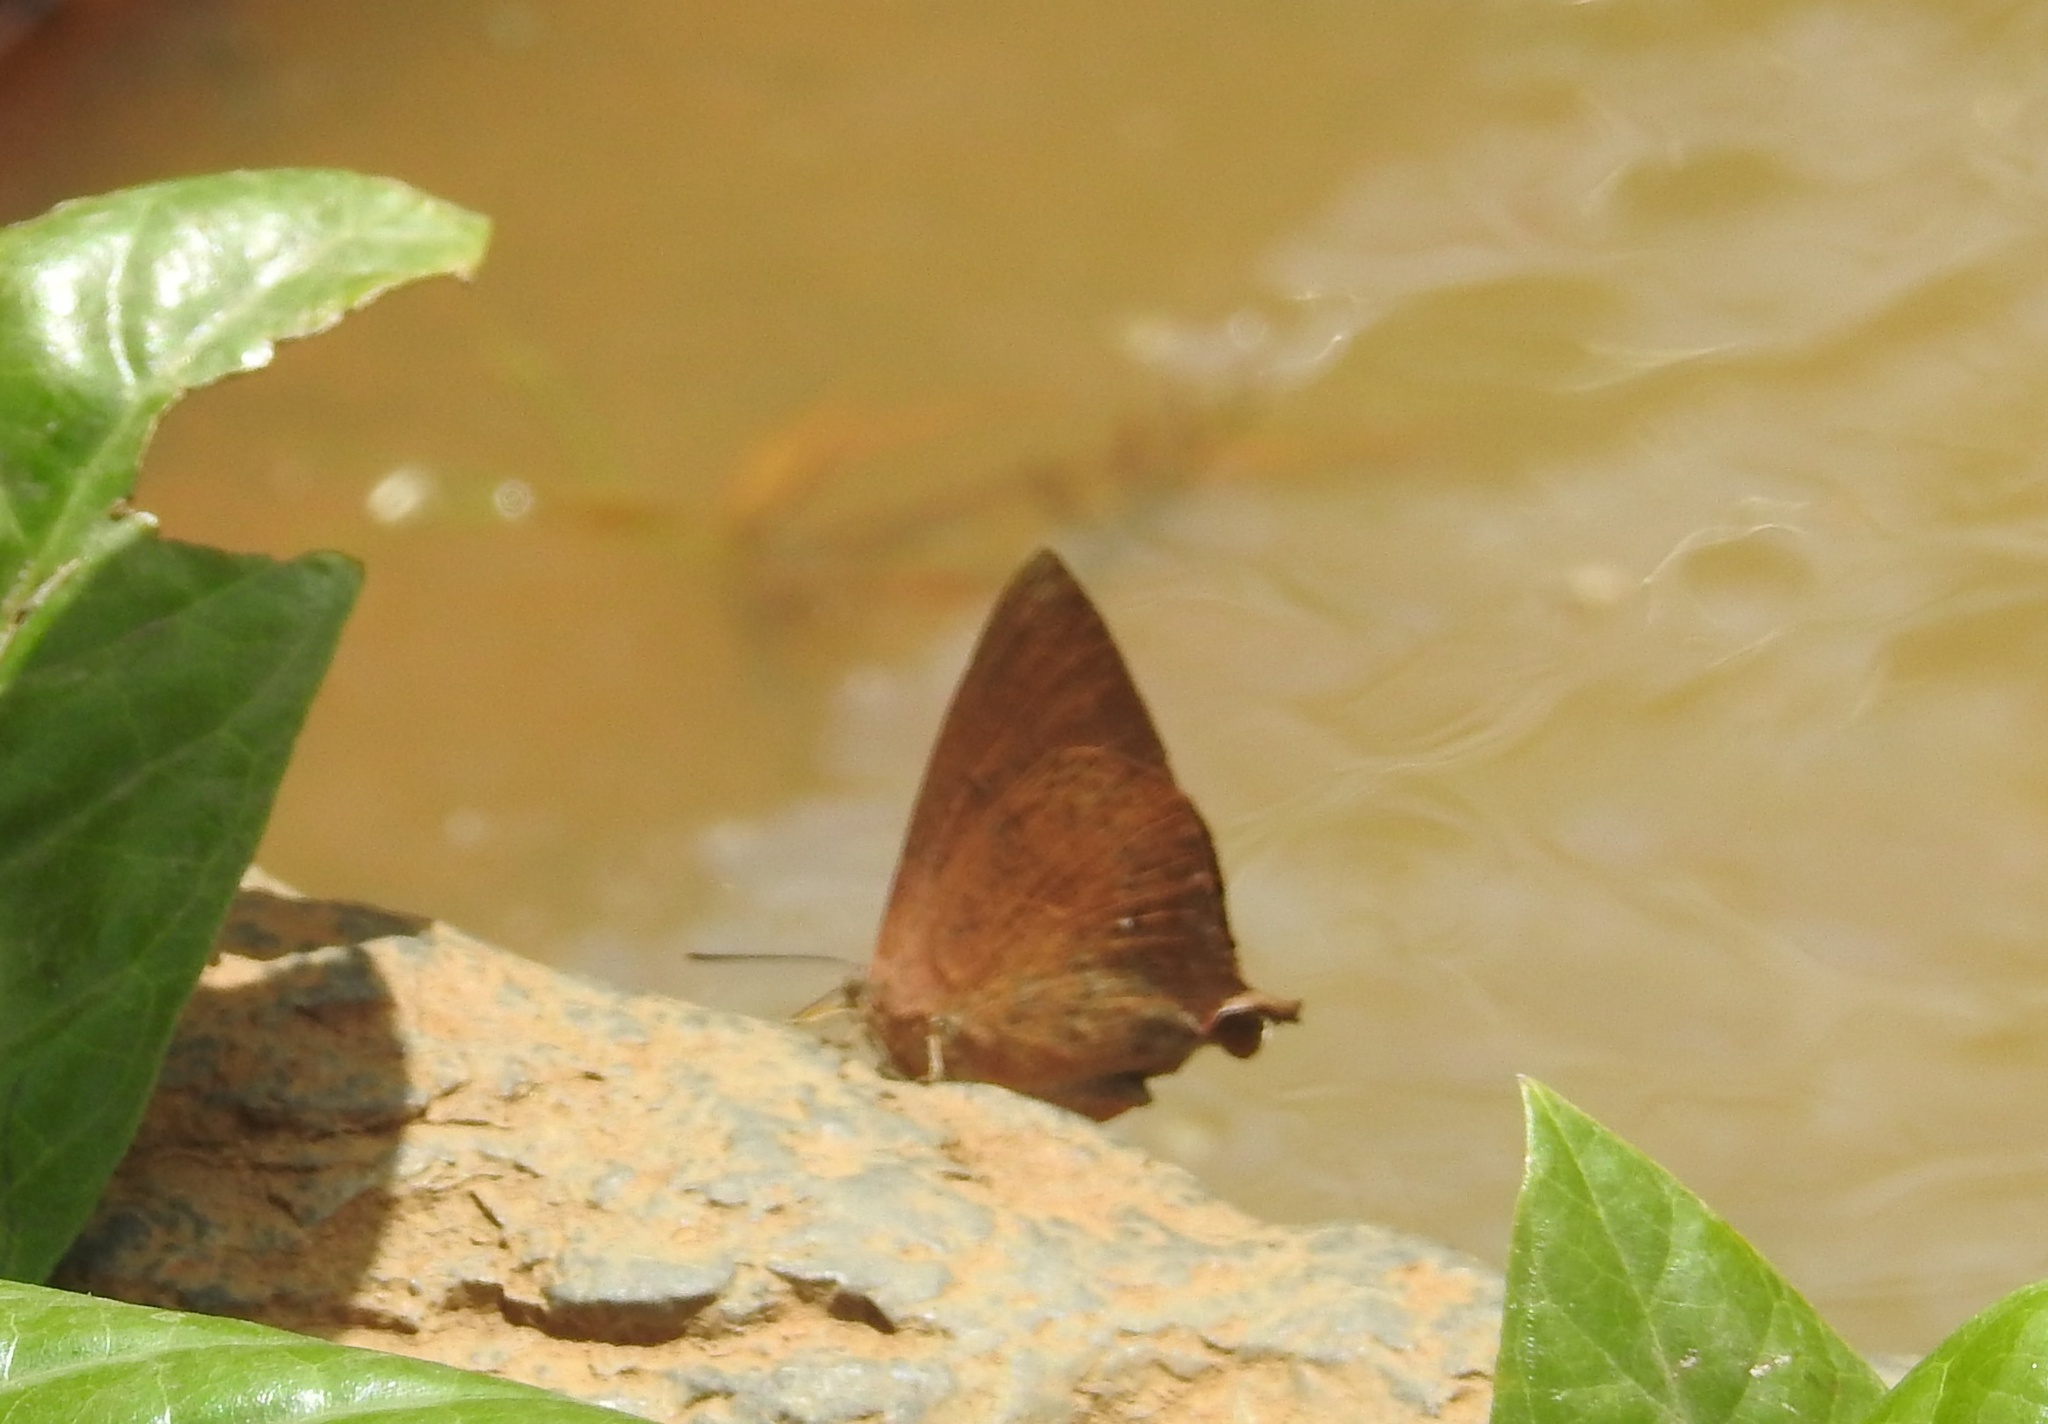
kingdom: Animalia
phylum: Arthropoda
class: Insecta
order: Lepidoptera
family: Lycaenidae
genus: Amblypodia
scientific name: Amblypodia anita
